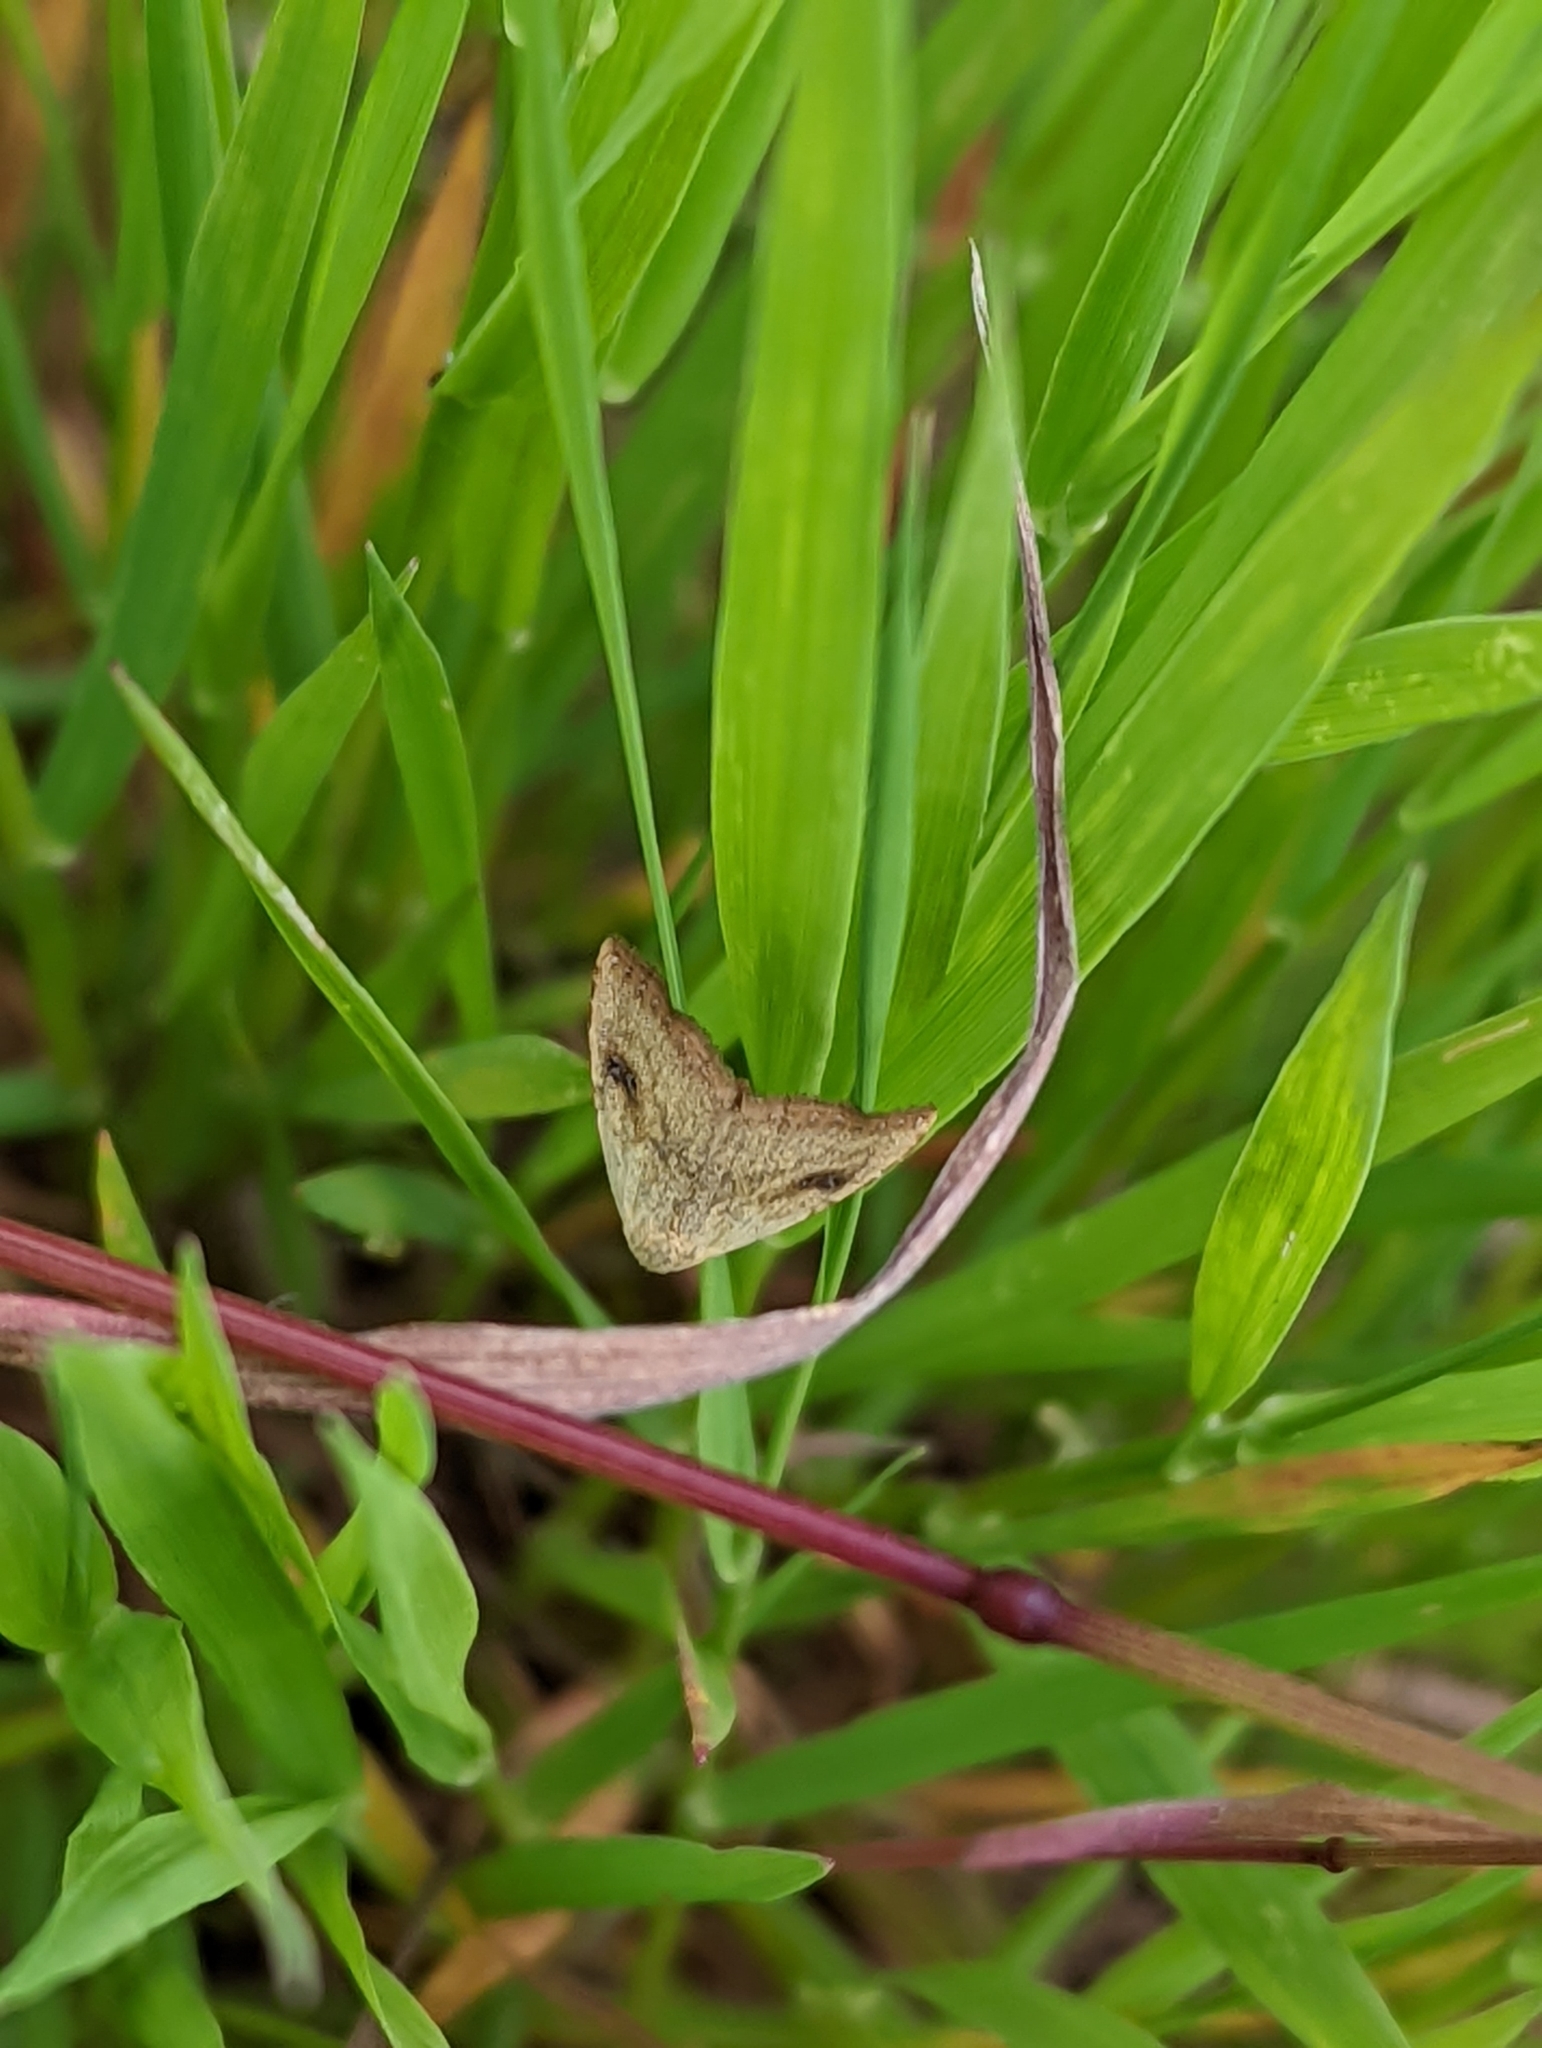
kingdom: Animalia
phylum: Arthropoda
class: Insecta
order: Lepidoptera
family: Erebidae
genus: Rivula
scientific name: Rivula sericealis
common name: Straw dot
